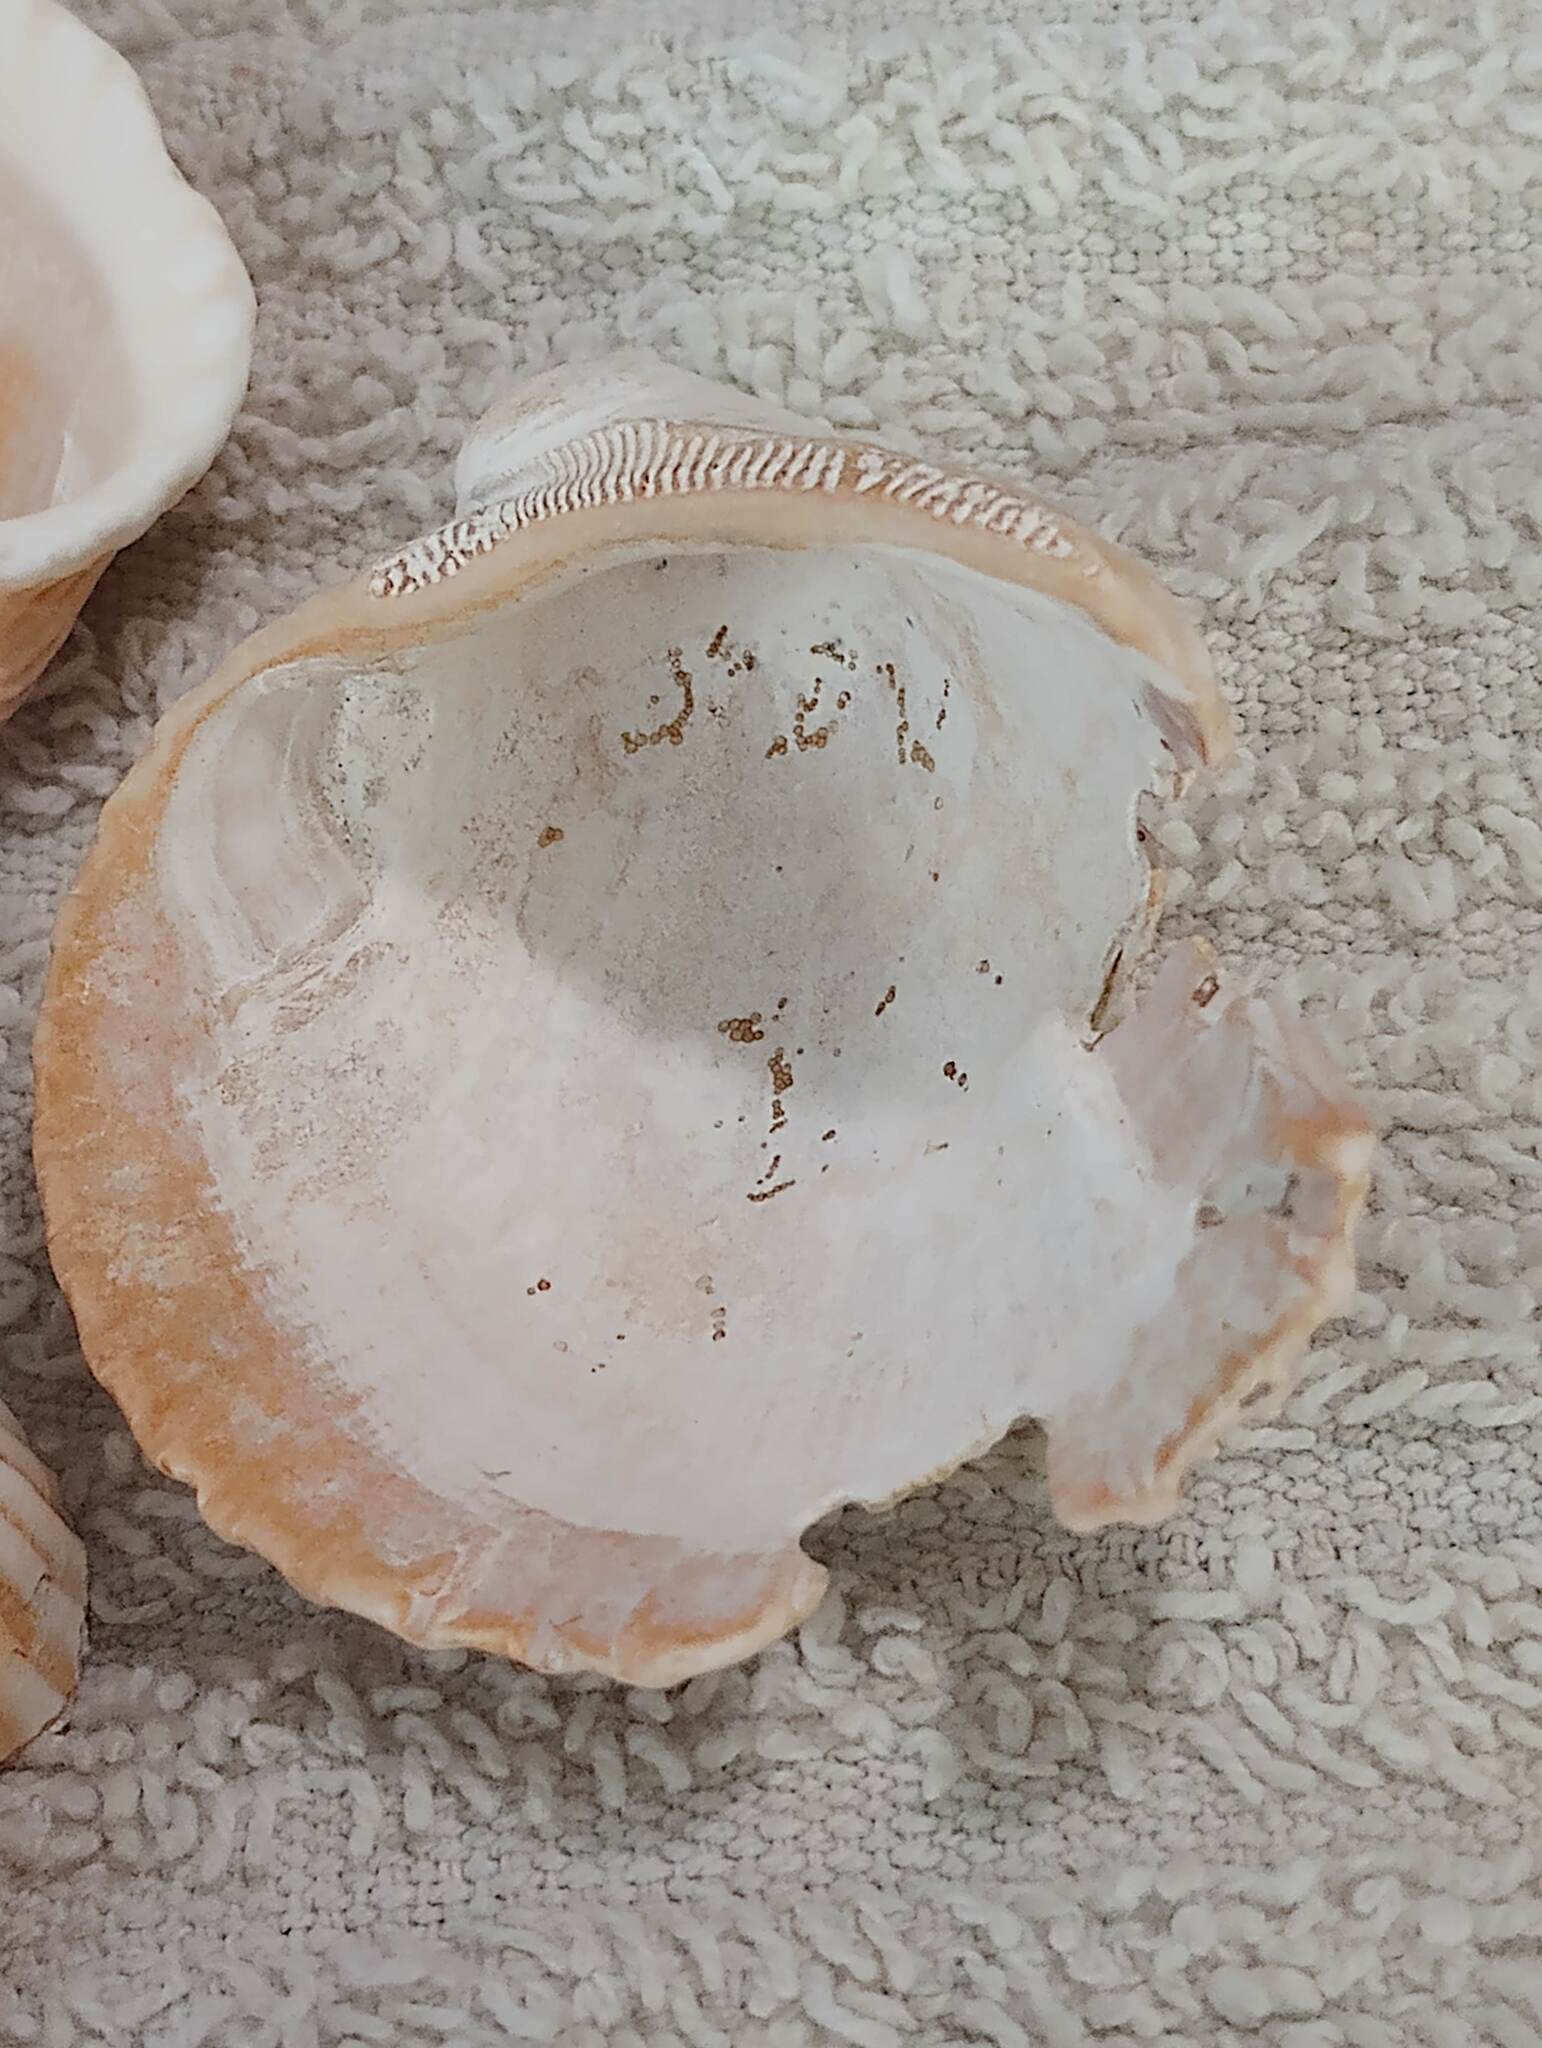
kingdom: Animalia
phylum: Mollusca
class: Bivalvia
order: Arcida
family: Arcidae
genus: Lunarca
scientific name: Lunarca ovalis
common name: Blood ark
